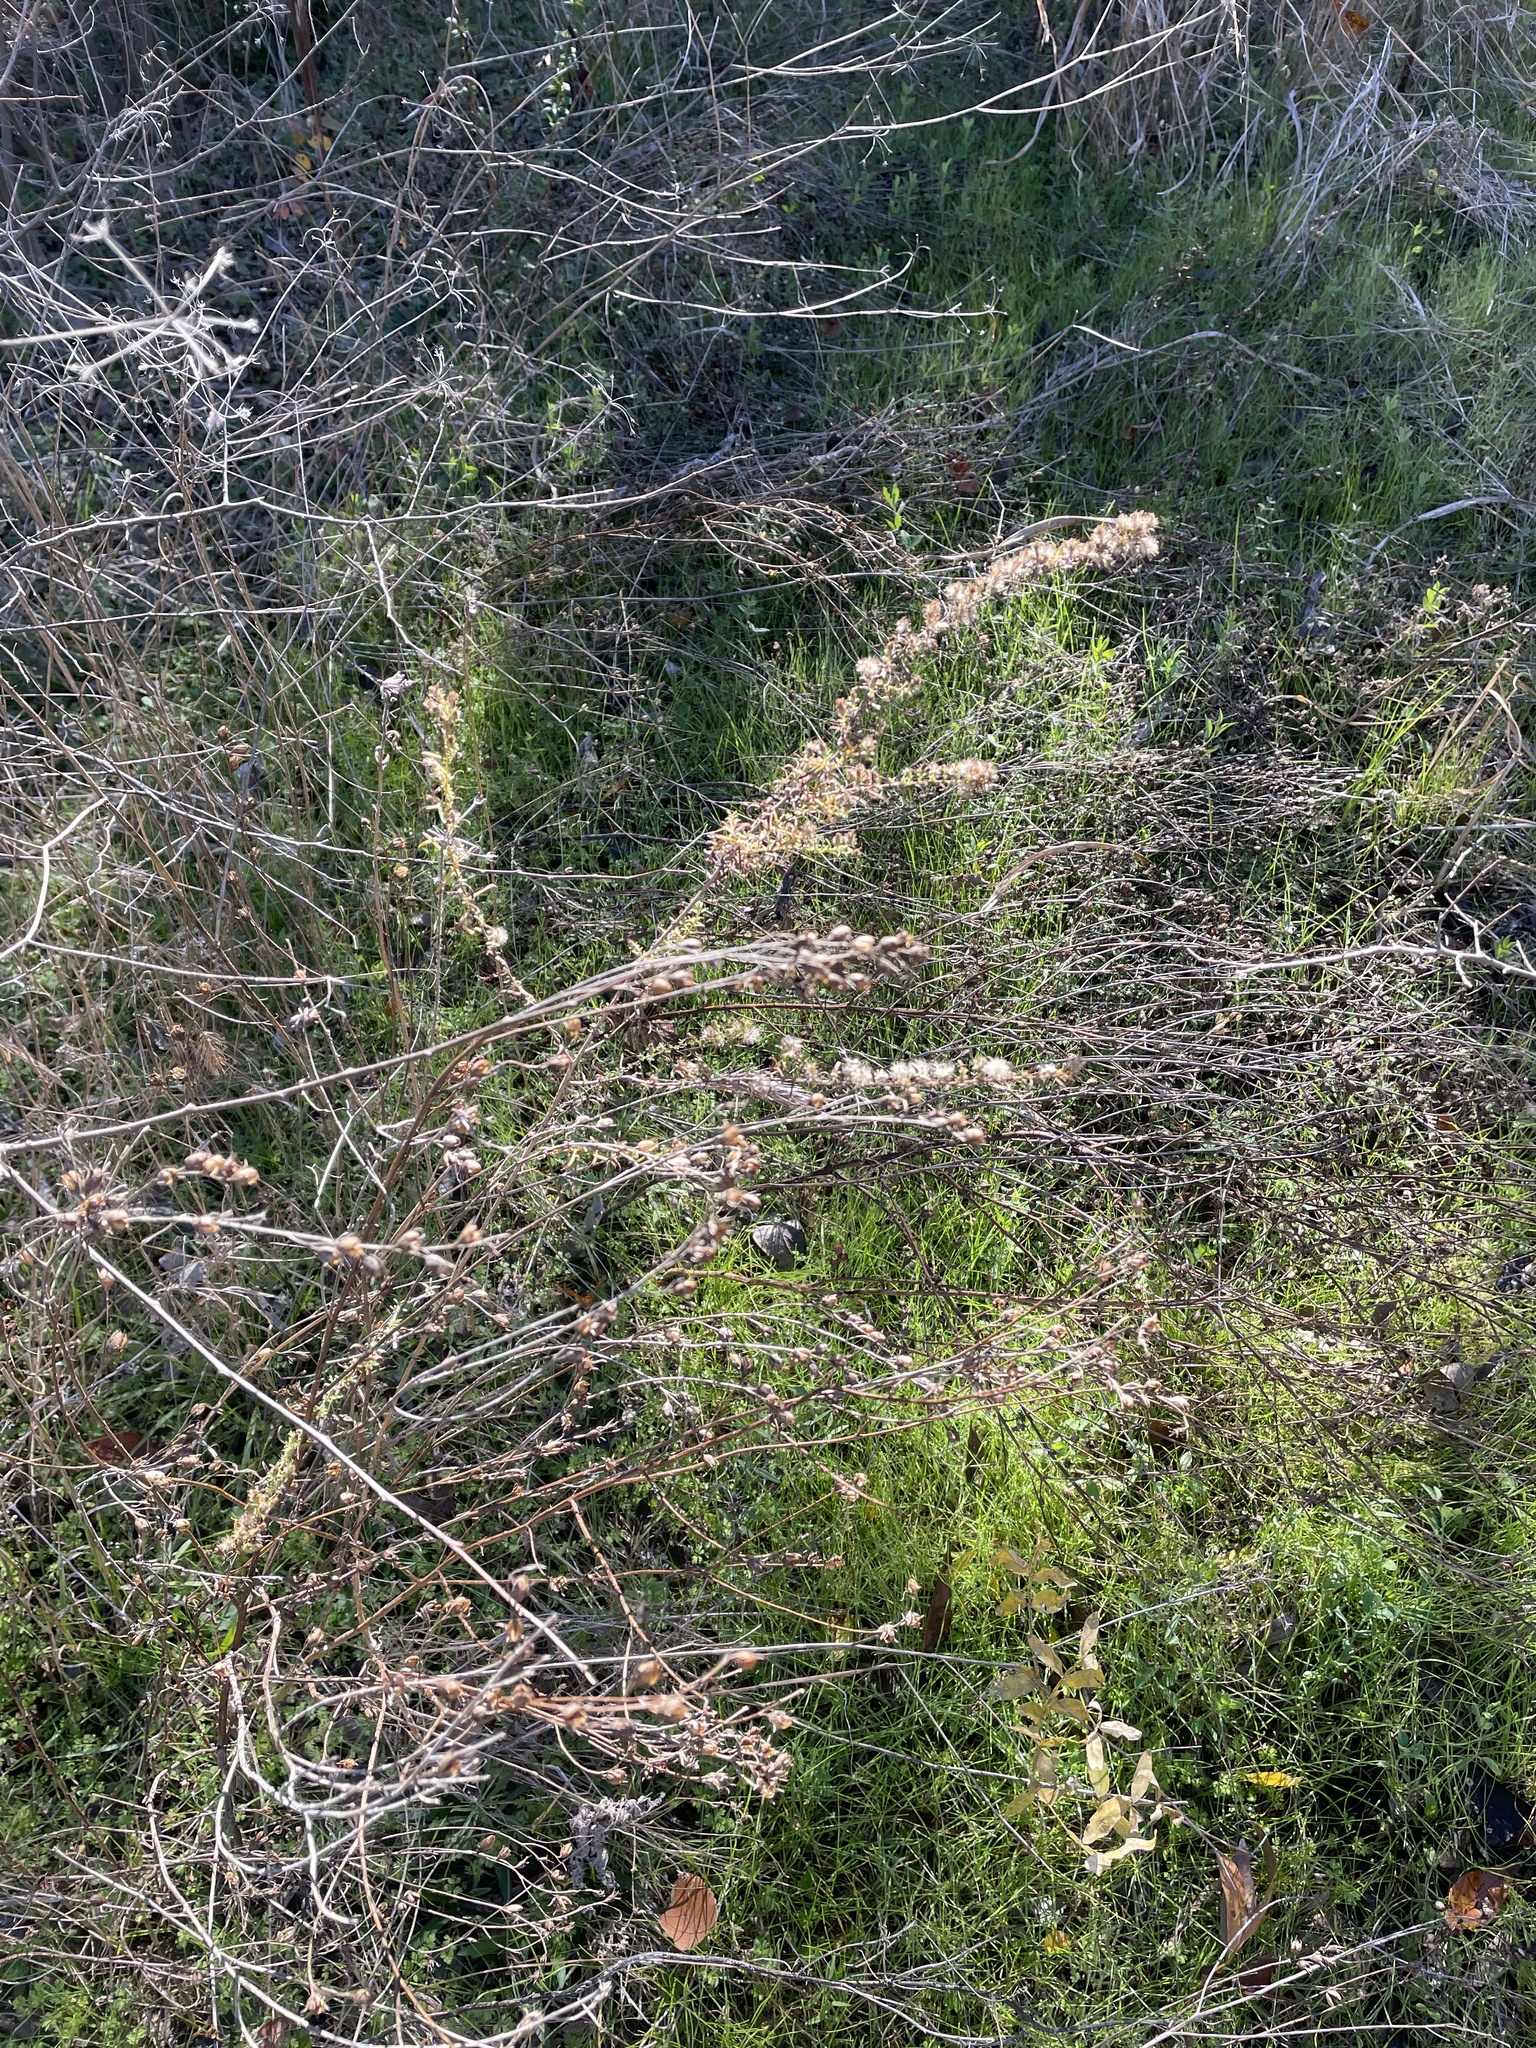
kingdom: Plantae
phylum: Tracheophyta
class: Magnoliopsida
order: Asterales
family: Asteraceae
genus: Symphyotrichum
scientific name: Symphyotrichum ericoides
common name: Heath aster
